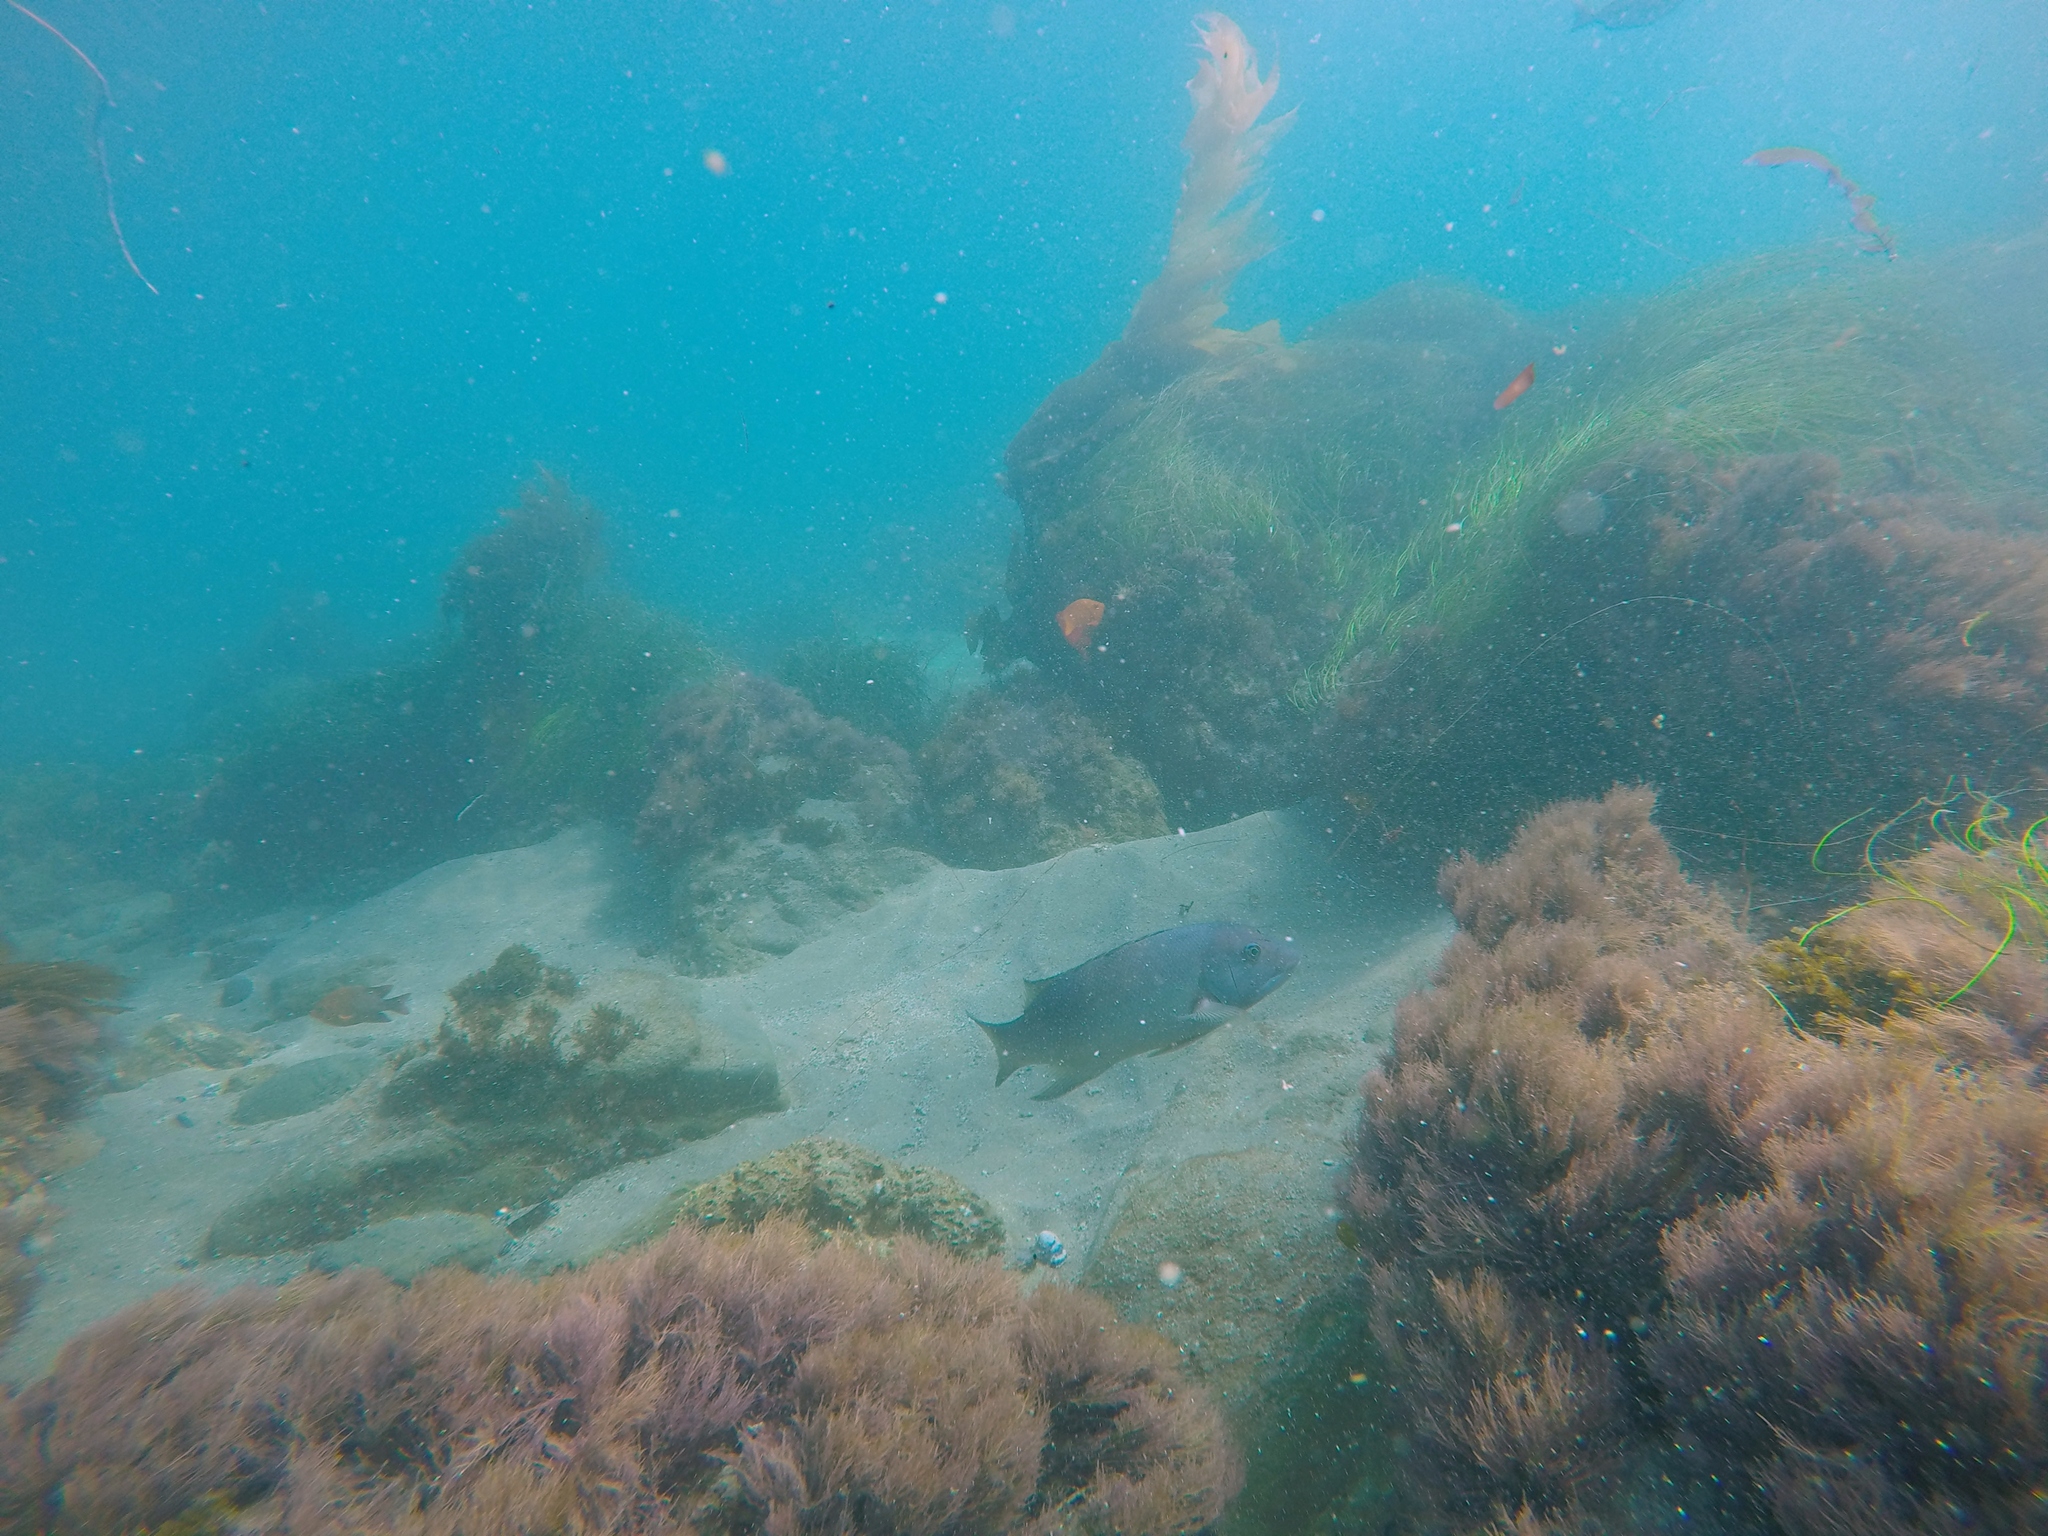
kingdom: Animalia
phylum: Chordata
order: Perciformes
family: Labridae
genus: Semicossyphus
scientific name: Semicossyphus pulcher
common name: California sheephead
